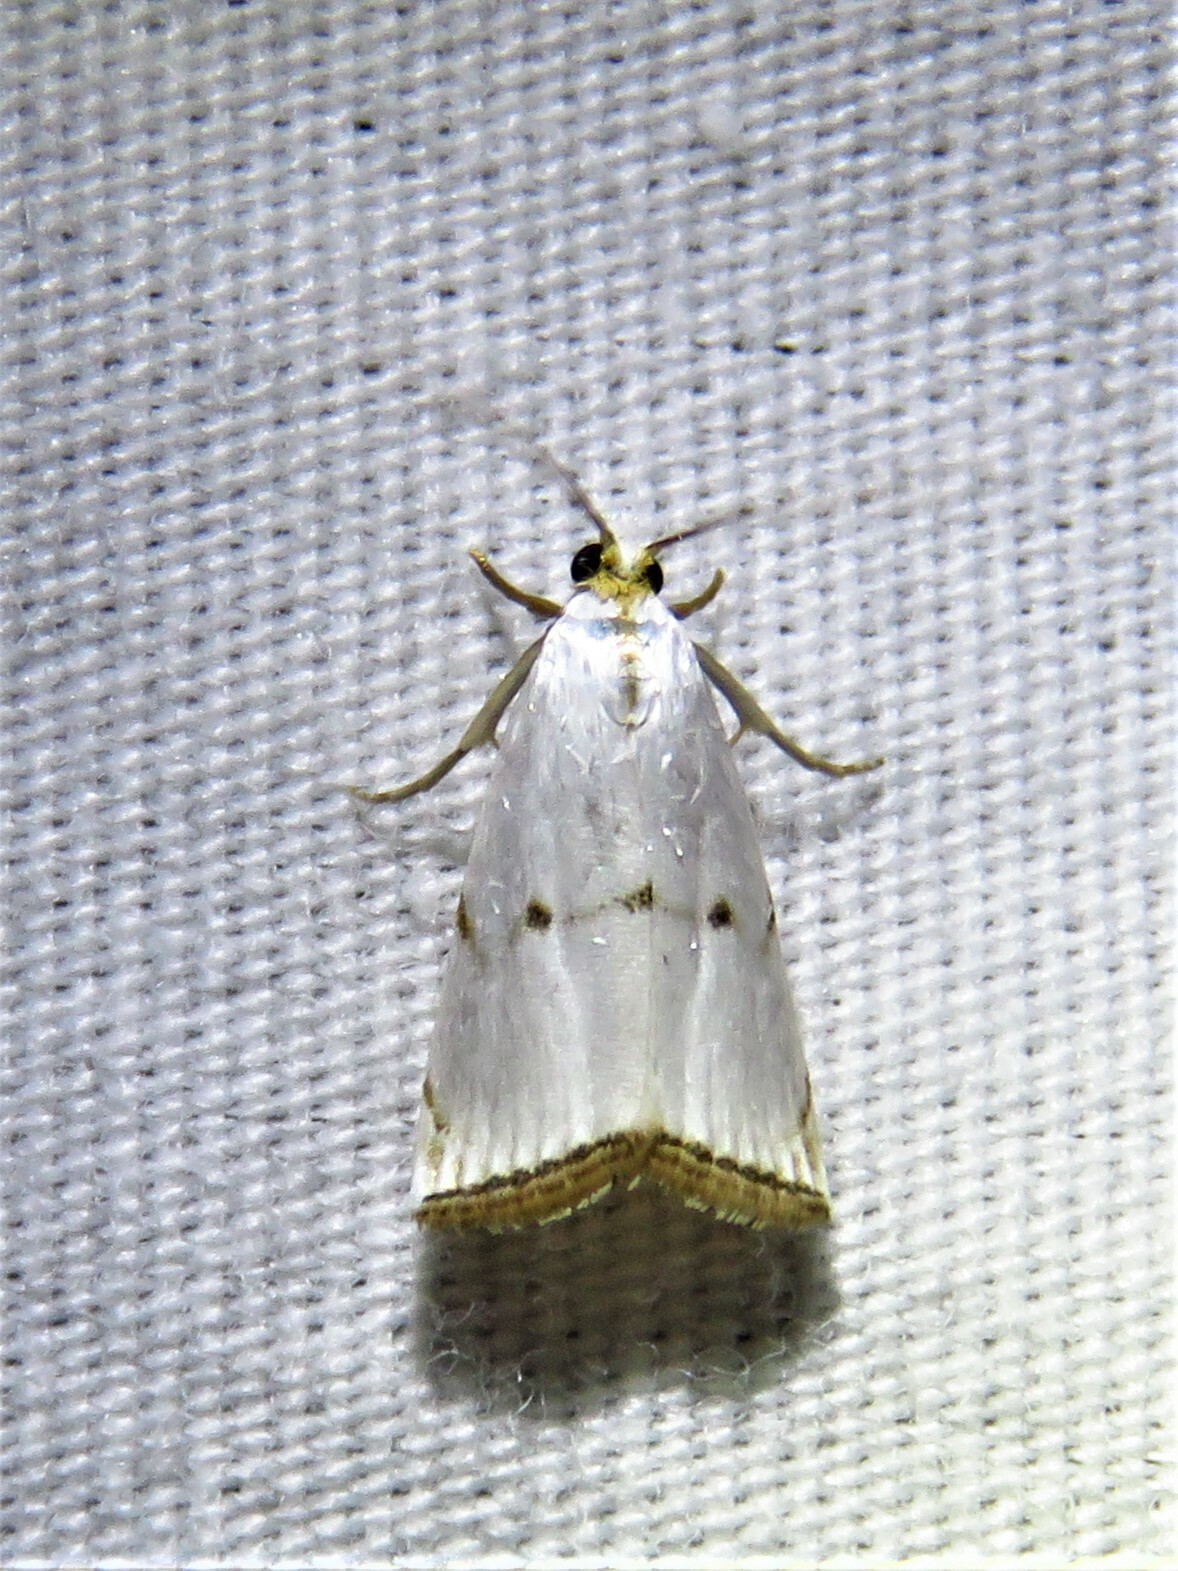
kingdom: Animalia
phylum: Arthropoda
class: Insecta
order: Lepidoptera
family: Crambidae
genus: Argyria
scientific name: Argyria pusillalis
